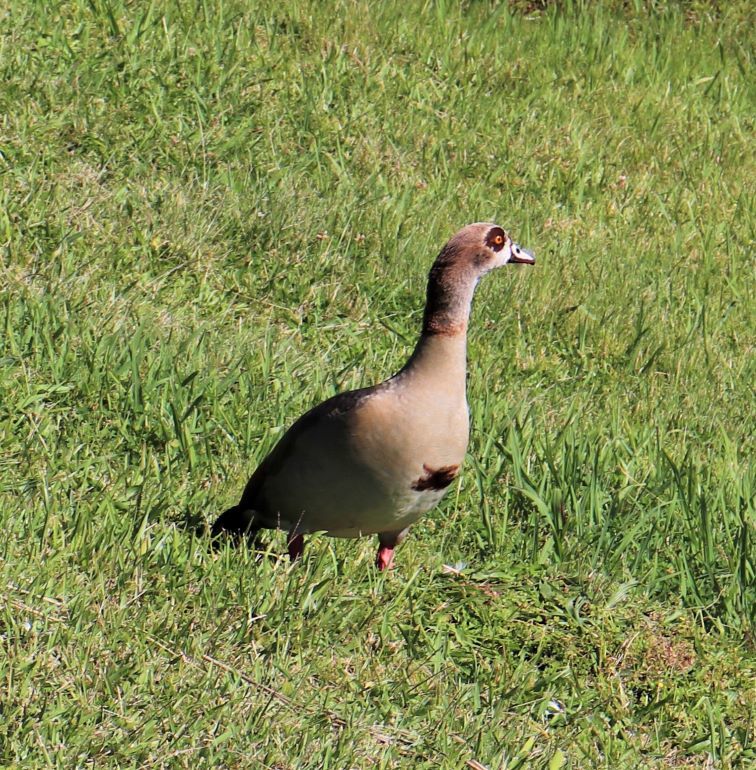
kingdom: Animalia
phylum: Chordata
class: Aves
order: Anseriformes
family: Anatidae
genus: Alopochen
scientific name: Alopochen aegyptiaca
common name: Egyptian goose
